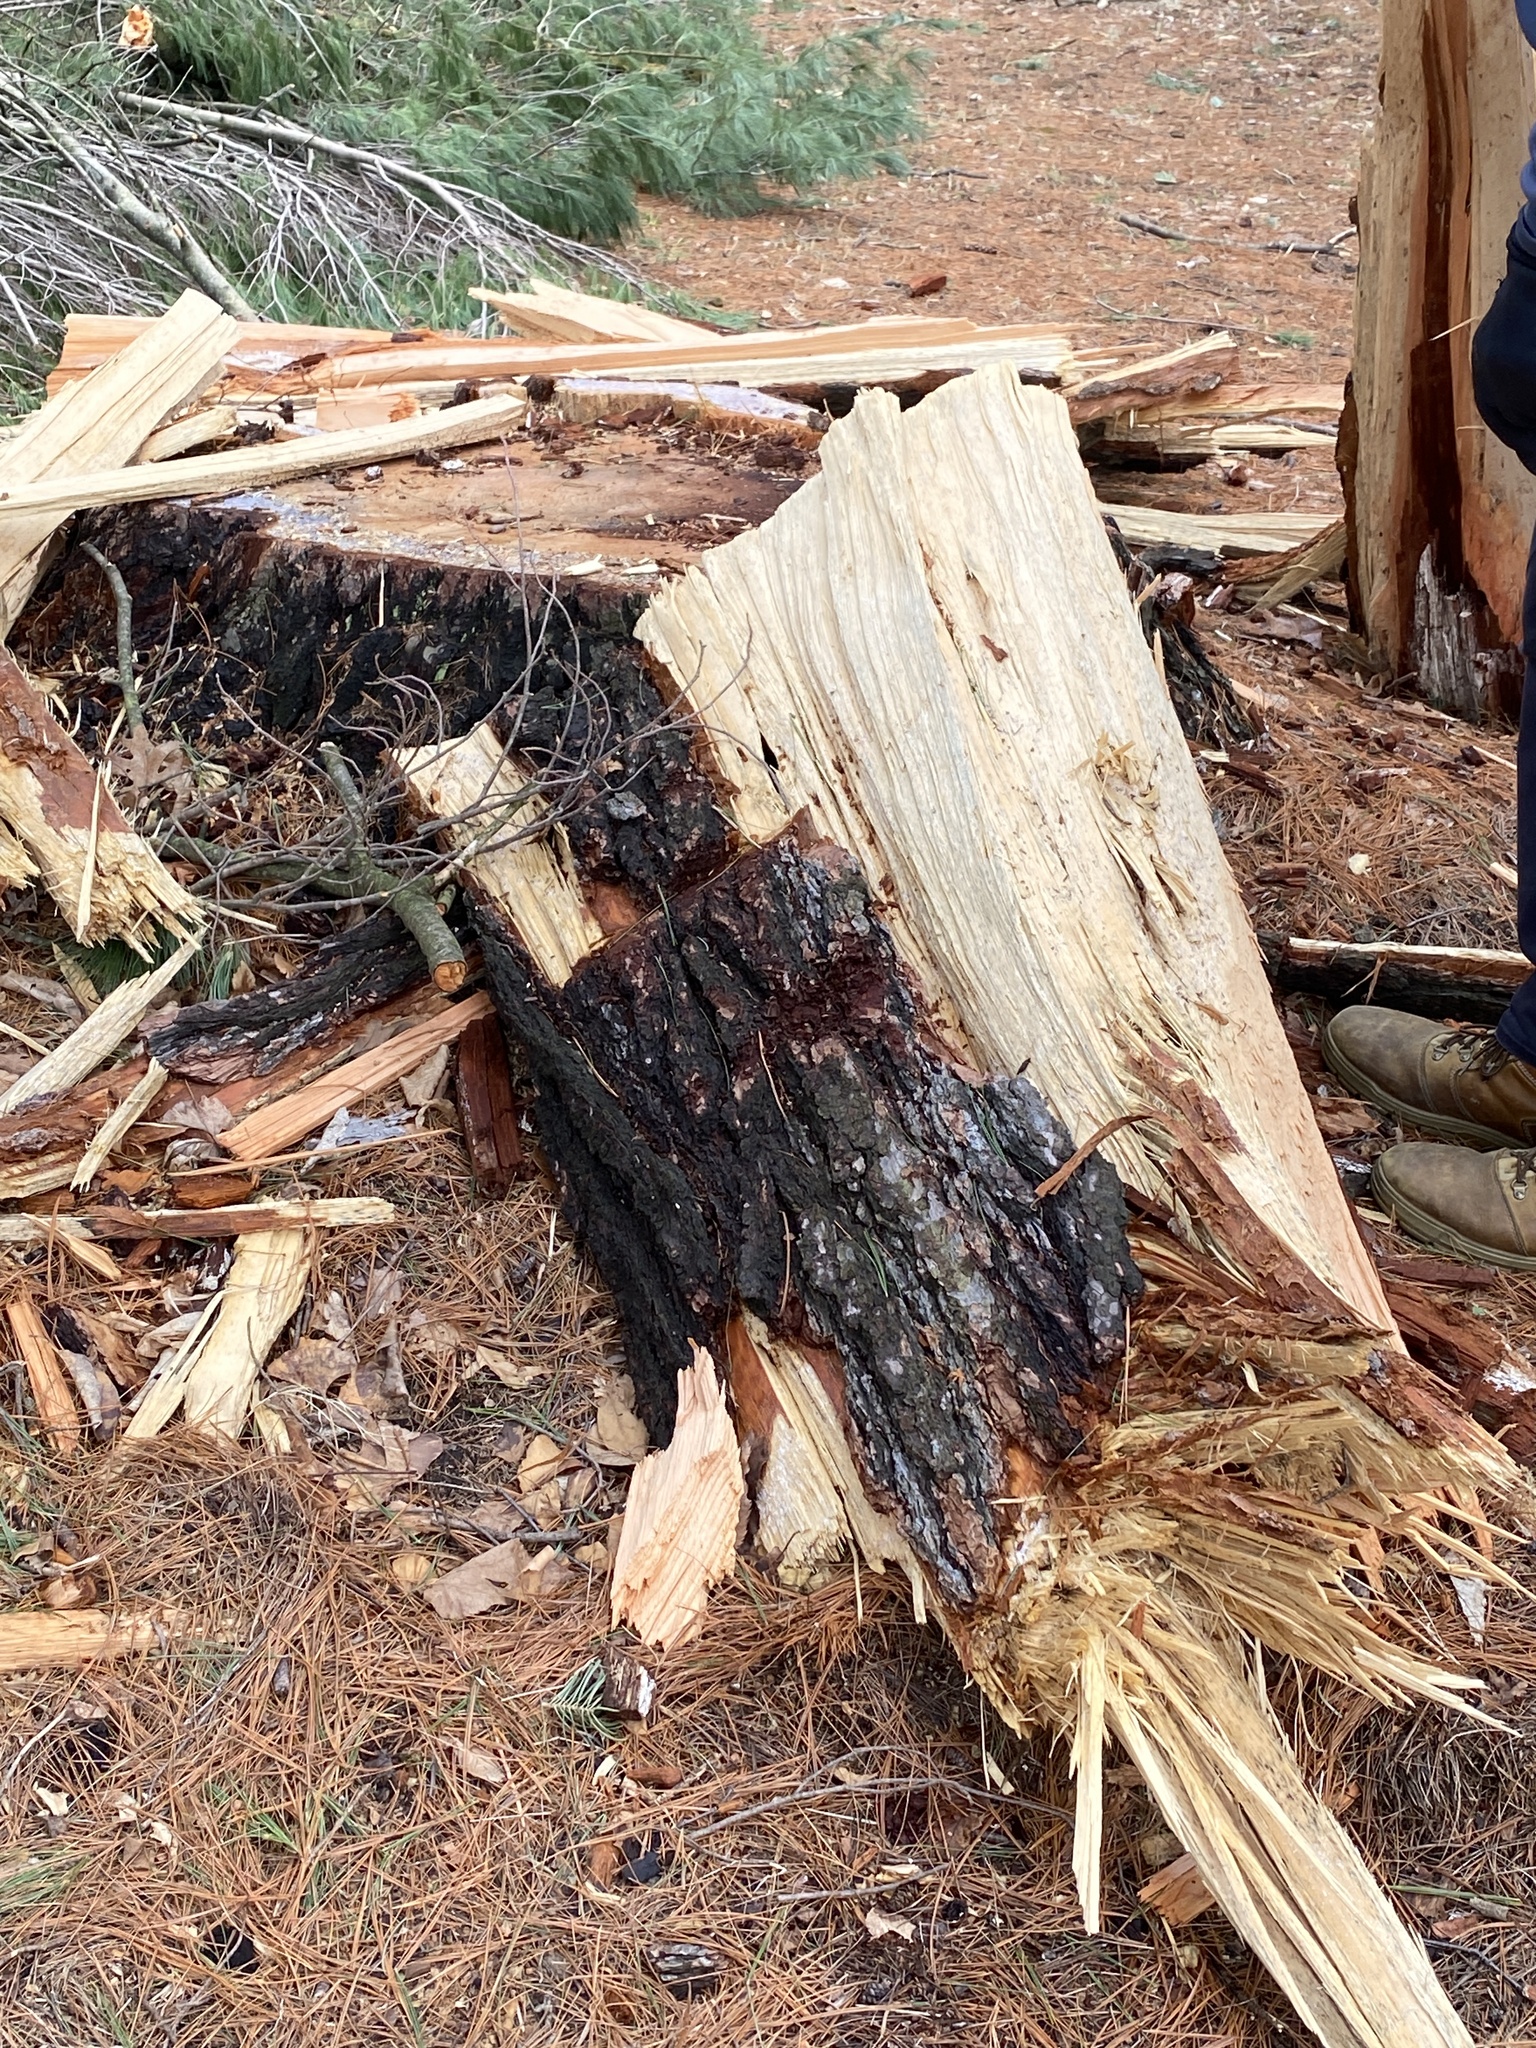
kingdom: Plantae
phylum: Tracheophyta
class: Pinopsida
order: Pinales
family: Pinaceae
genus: Pinus
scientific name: Pinus strobus
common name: Weymouth pine
